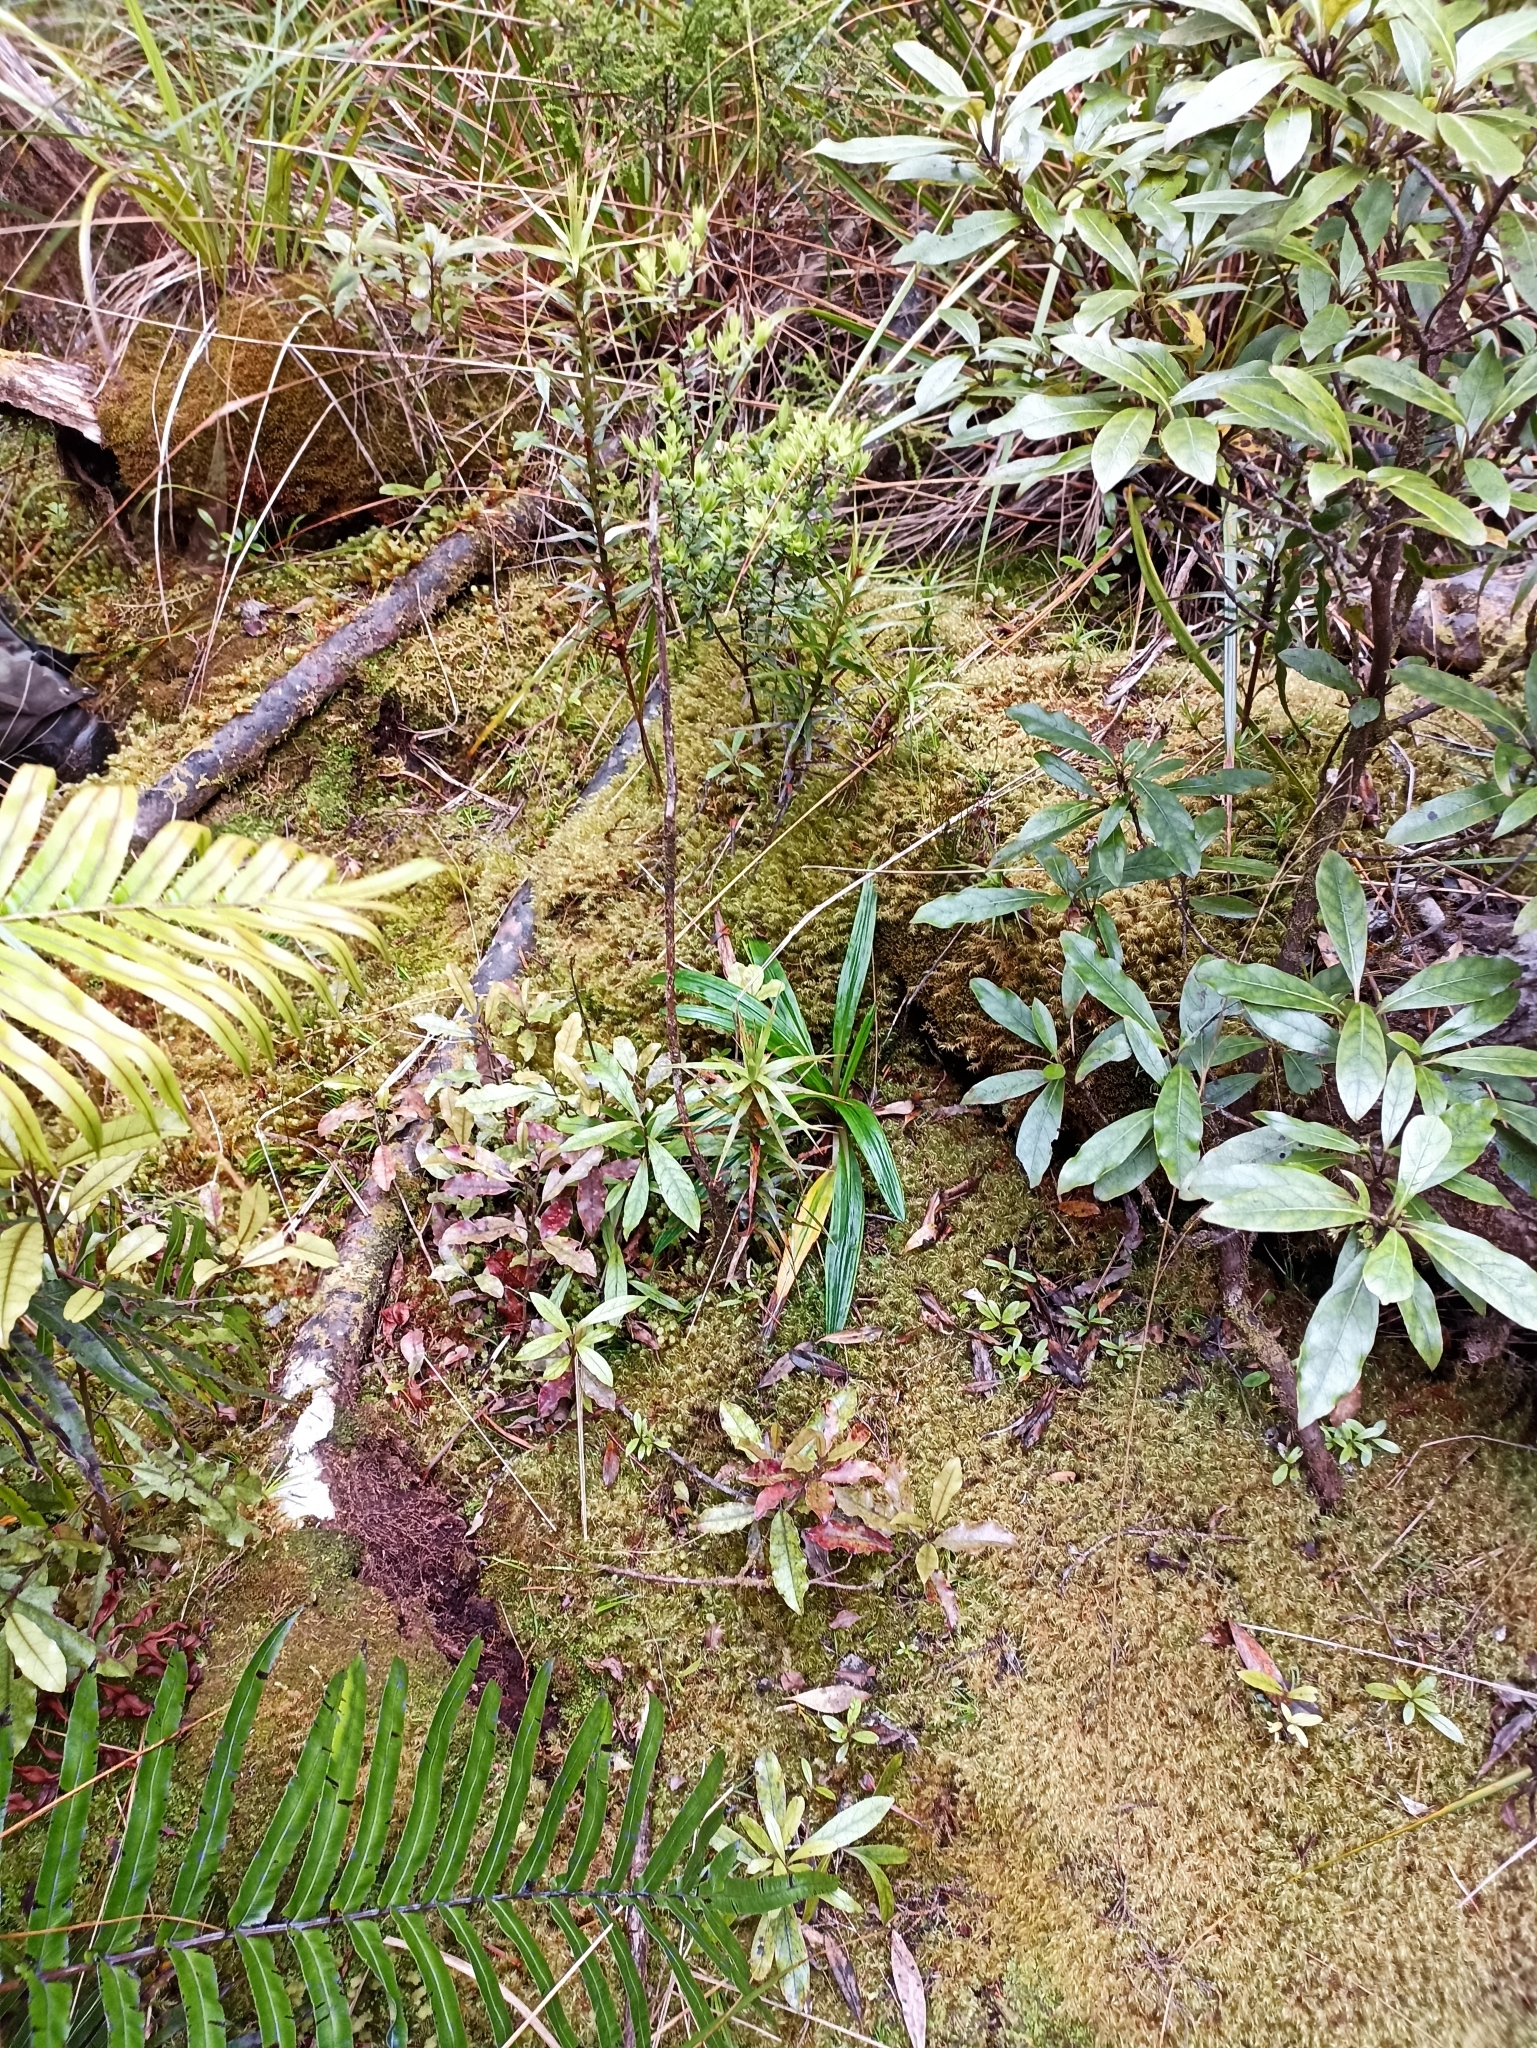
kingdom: Plantae
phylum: Tracheophyta
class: Magnoliopsida
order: Asterales
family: Asteraceae
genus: Celmisia
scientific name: Celmisia adamsii
